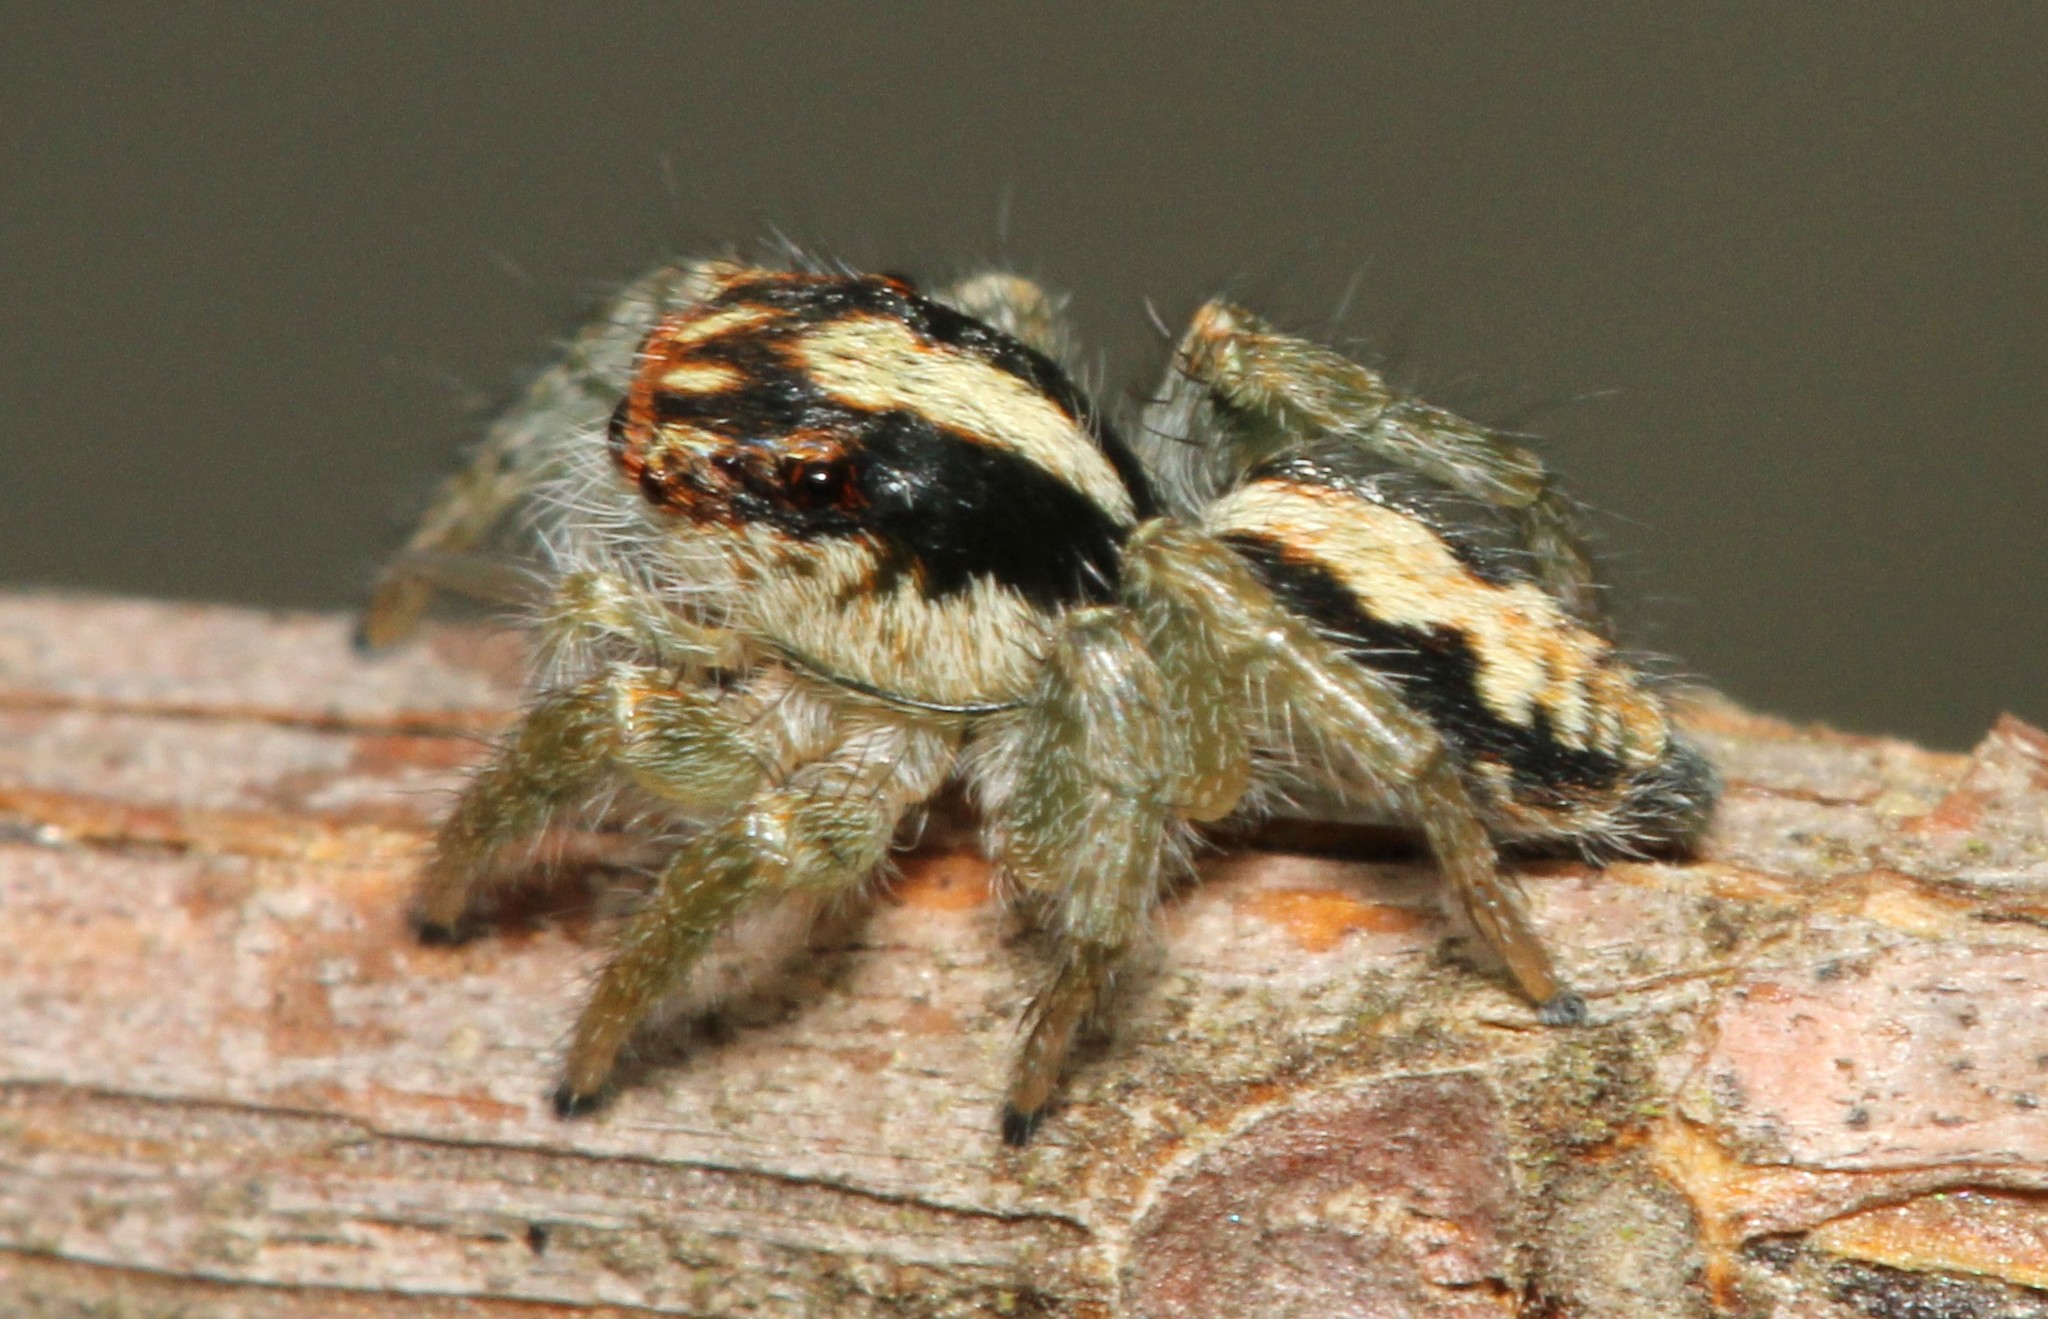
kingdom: Animalia
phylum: Arthropoda
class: Arachnida
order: Araneae
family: Salticidae
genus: Megafreya
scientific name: Megafreya sutrix
